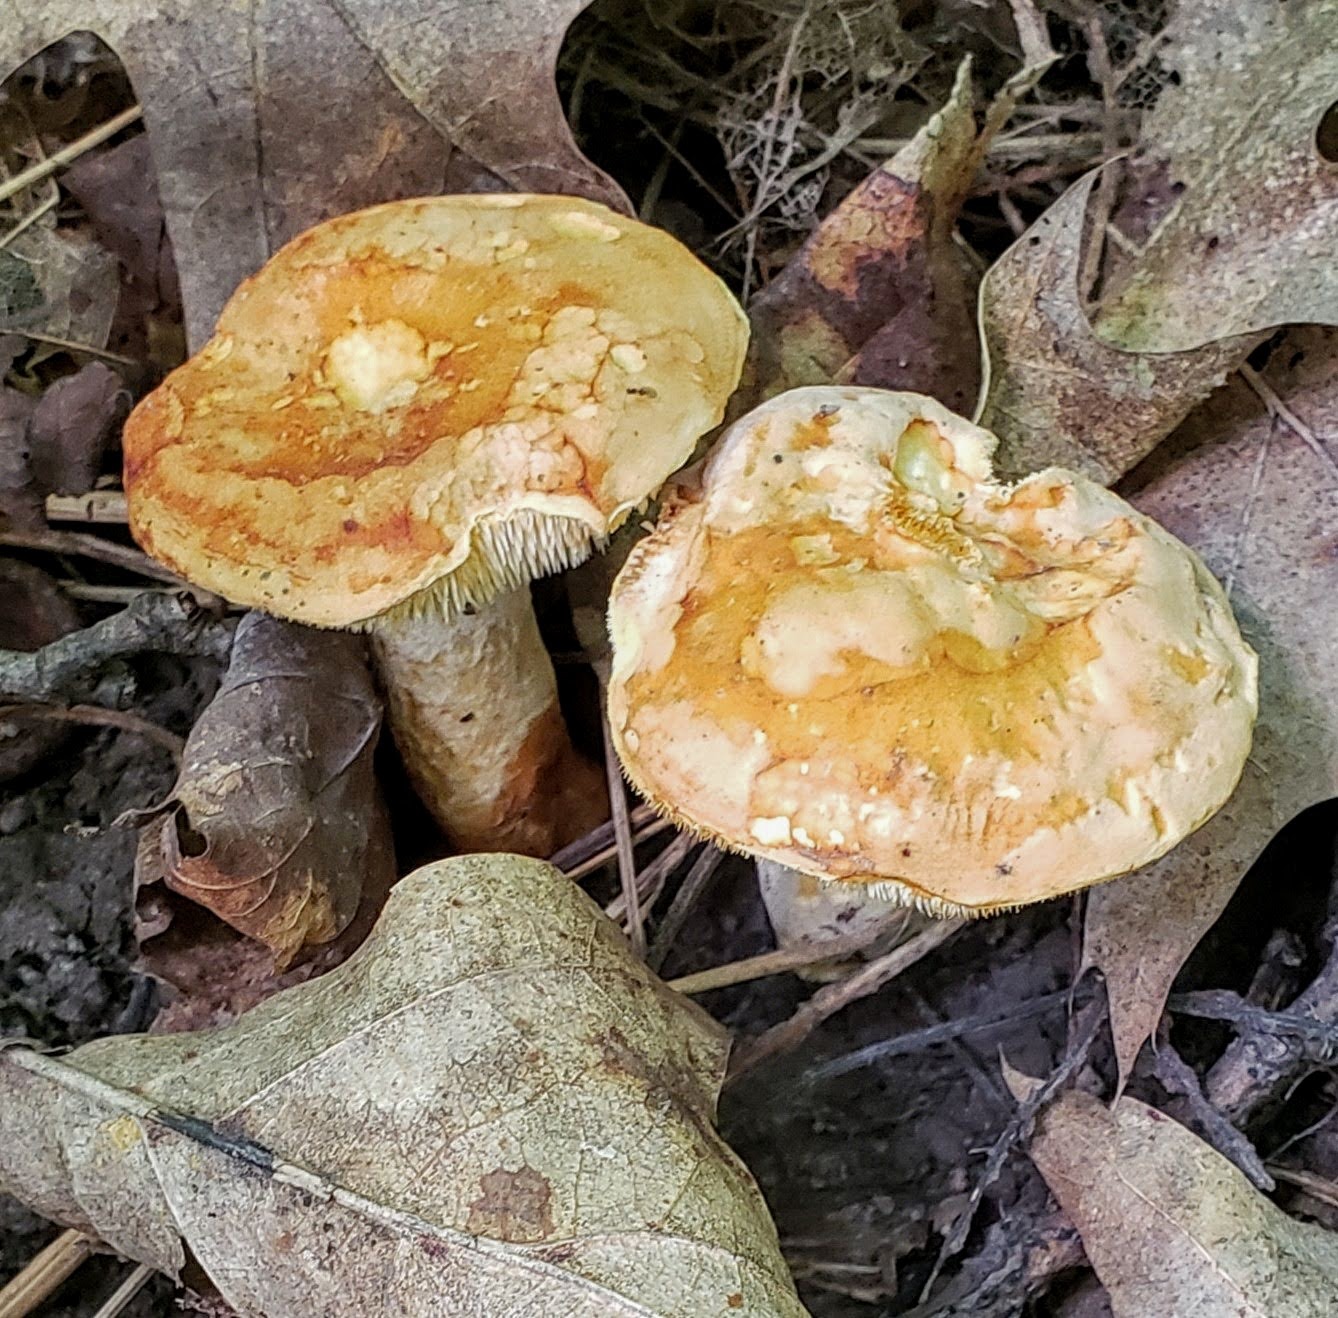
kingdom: Fungi
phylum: Basidiomycota
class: Agaricomycetes
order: Cantharellales
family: Hydnaceae
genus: Hydnum
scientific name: Hydnum
